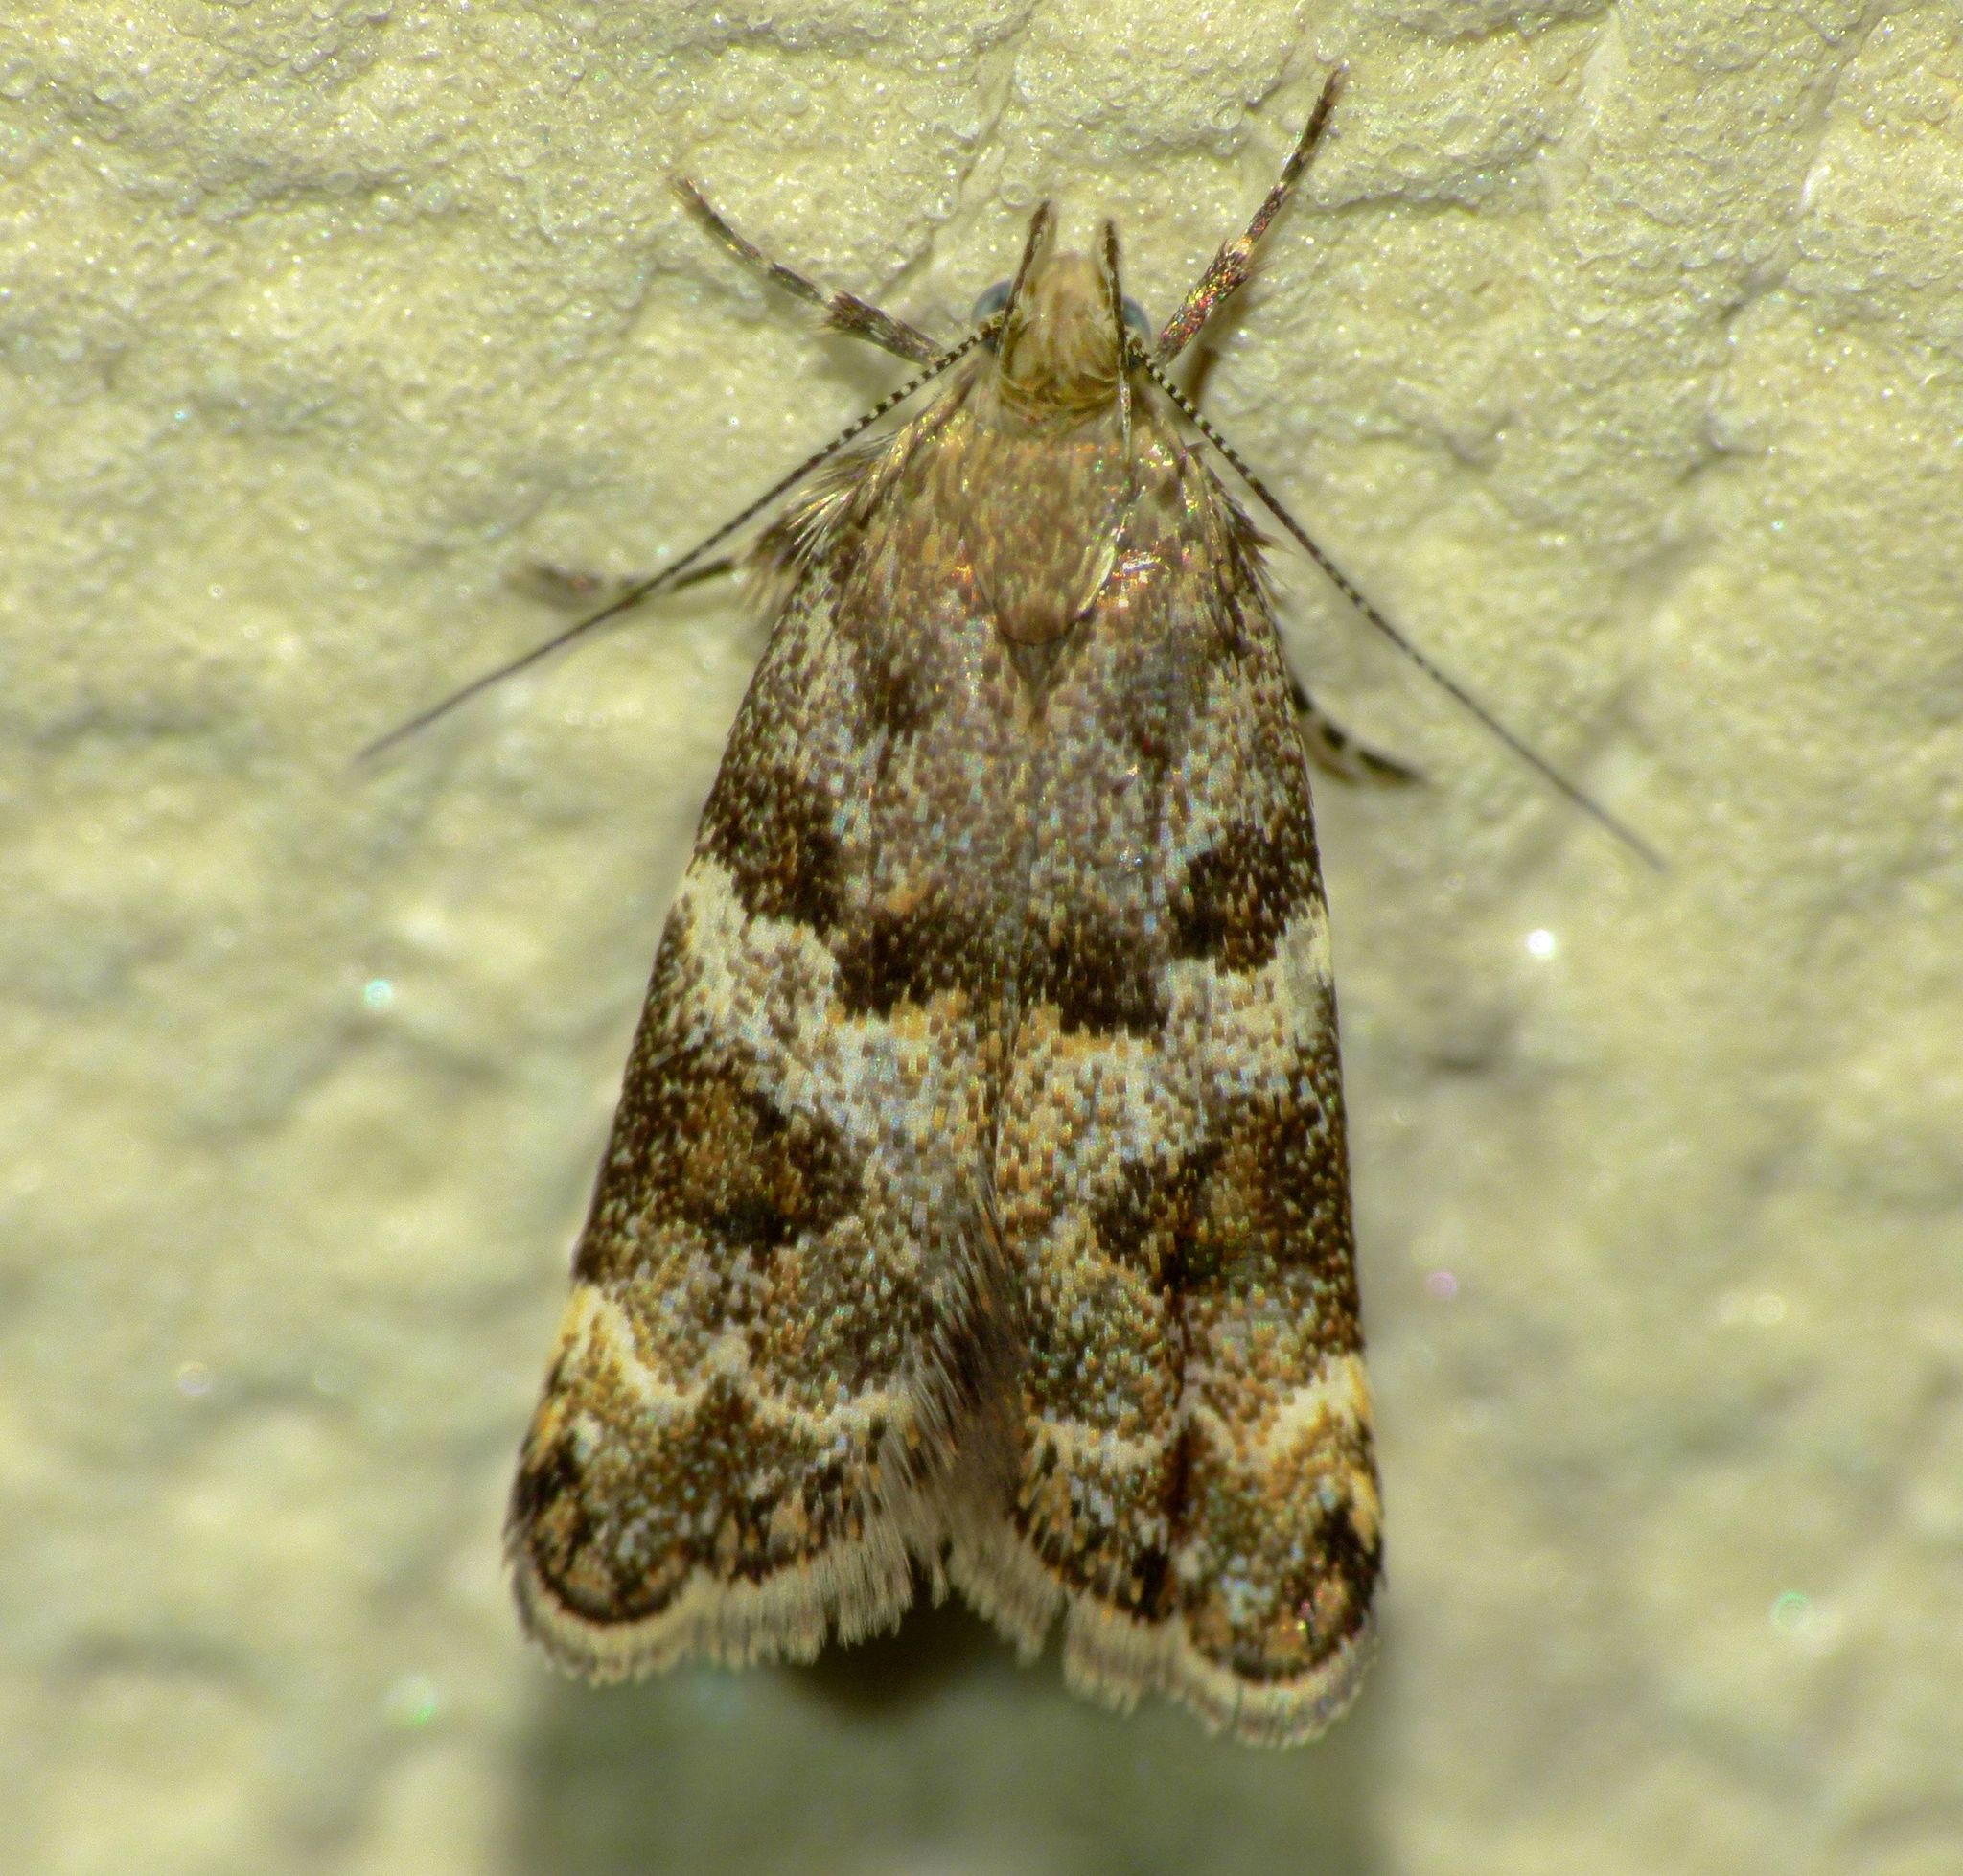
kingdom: Animalia
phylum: Arthropoda
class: Insecta
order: Lepidoptera
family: Oecophoridae
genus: Gymnobathra
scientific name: Gymnobathra omphalota
